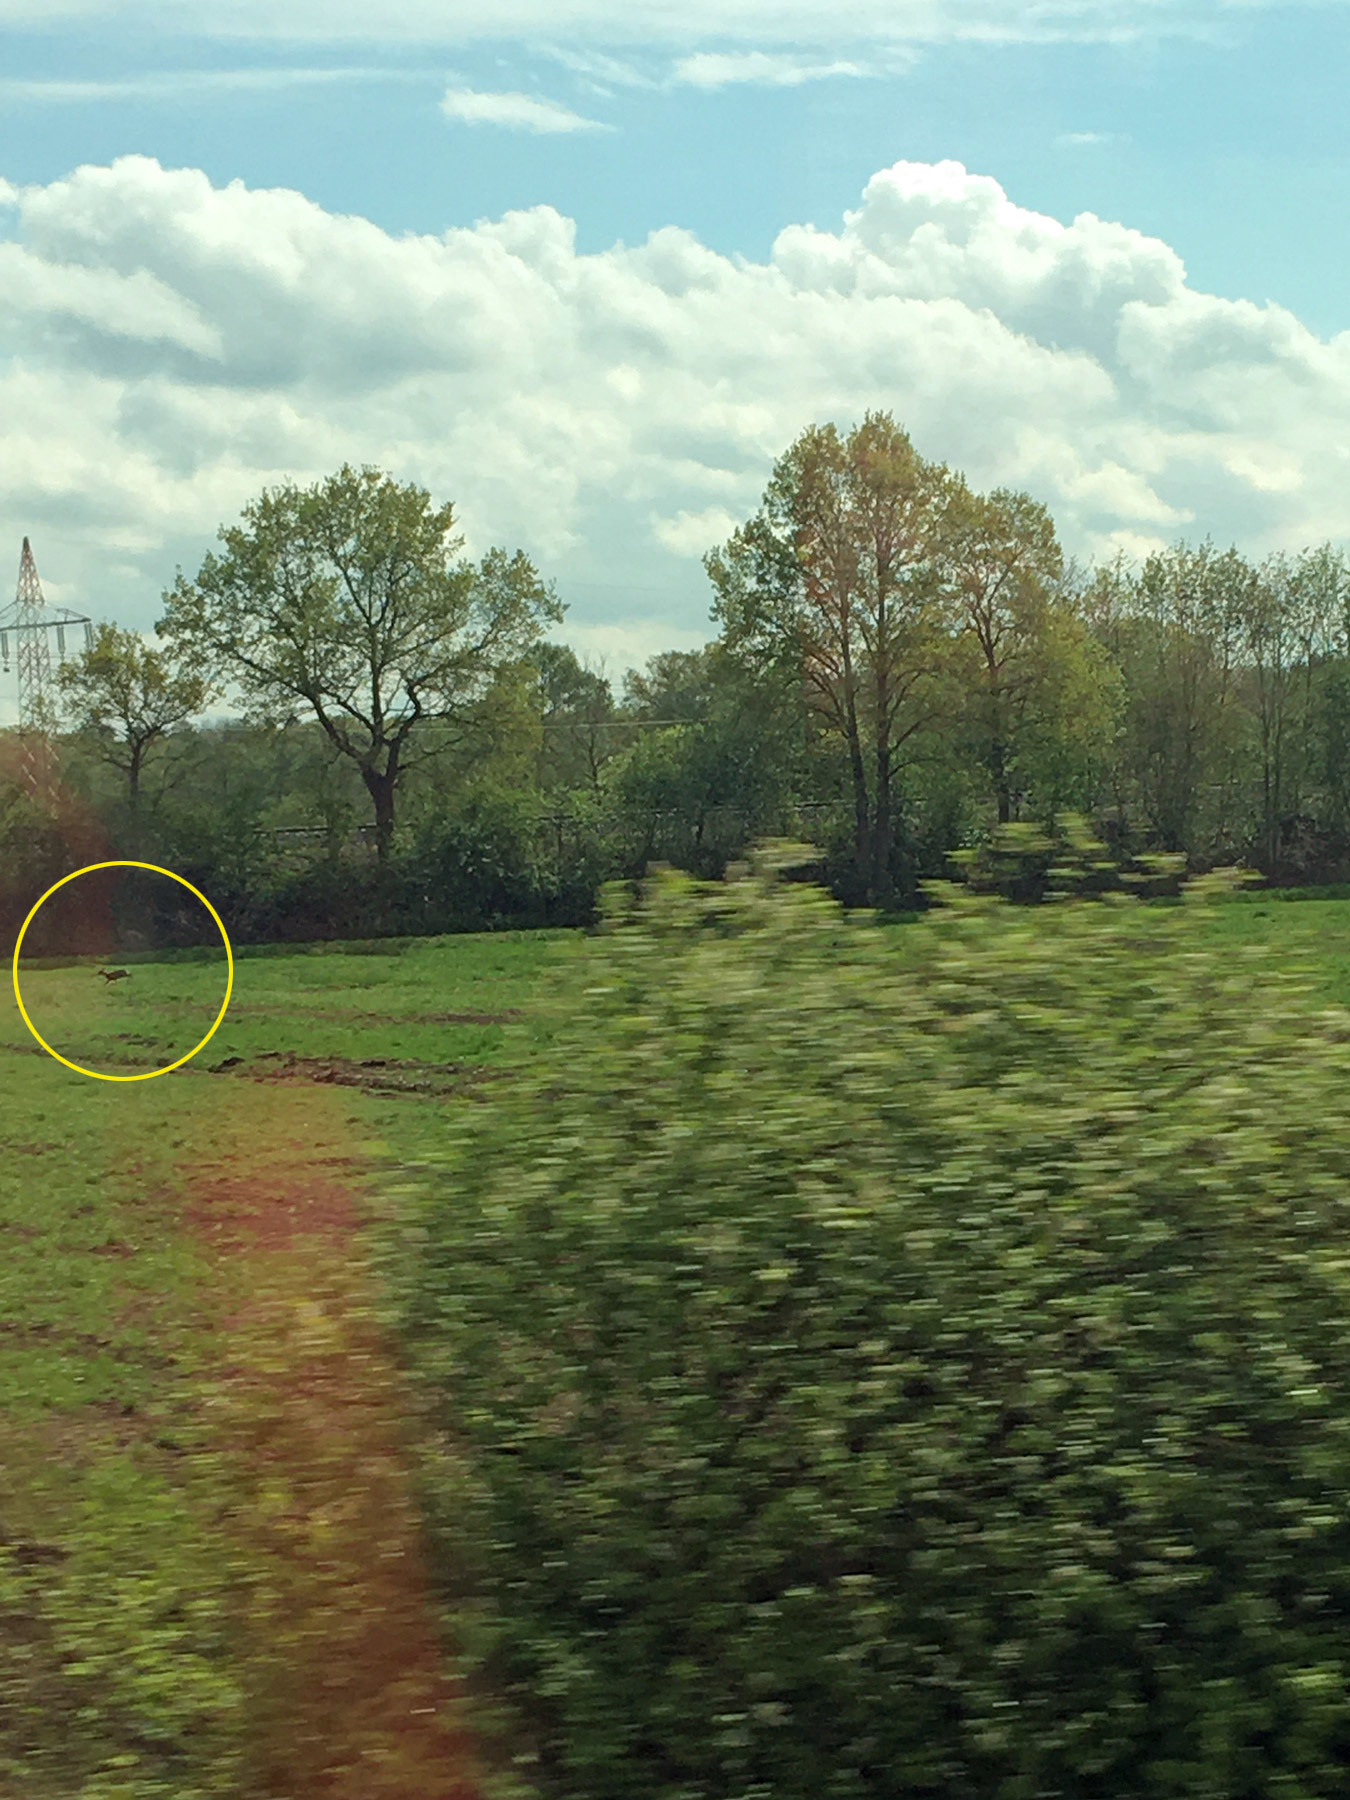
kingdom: Animalia
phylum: Chordata
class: Mammalia
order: Artiodactyla
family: Cervidae
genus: Capreolus
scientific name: Capreolus capreolus
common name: Western roe deer
